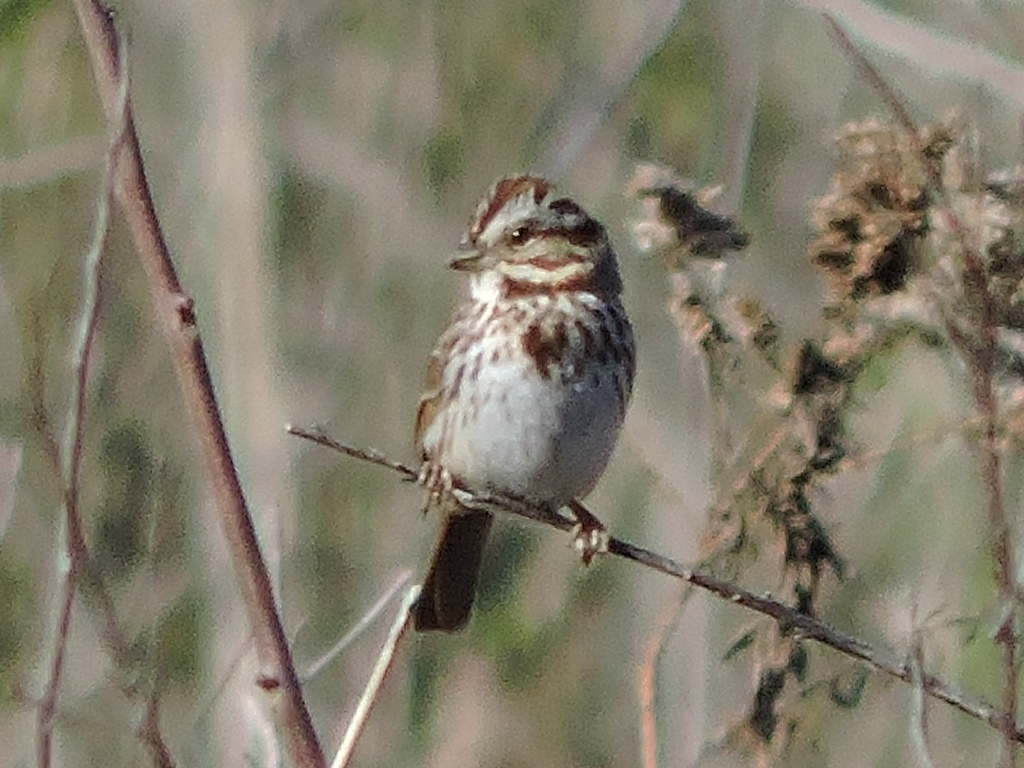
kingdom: Animalia
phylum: Chordata
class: Aves
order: Passeriformes
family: Passerellidae
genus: Melospiza
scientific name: Melospiza melodia
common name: Song sparrow
